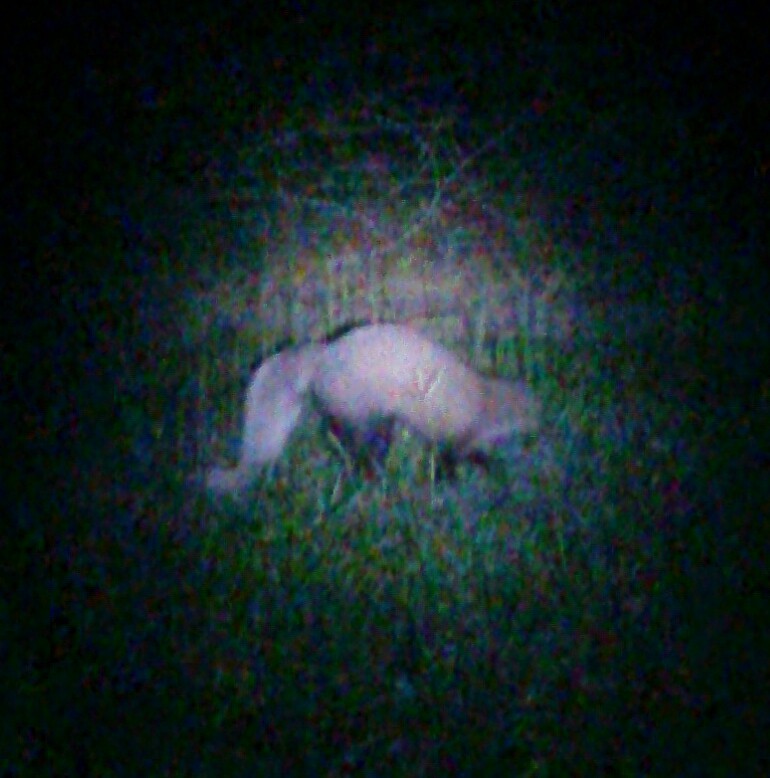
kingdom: Animalia
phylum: Chordata
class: Mammalia
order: Carnivora
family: Herpestidae
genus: Ichneumia
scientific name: Ichneumia albicauda
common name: White-tailed mongoose
